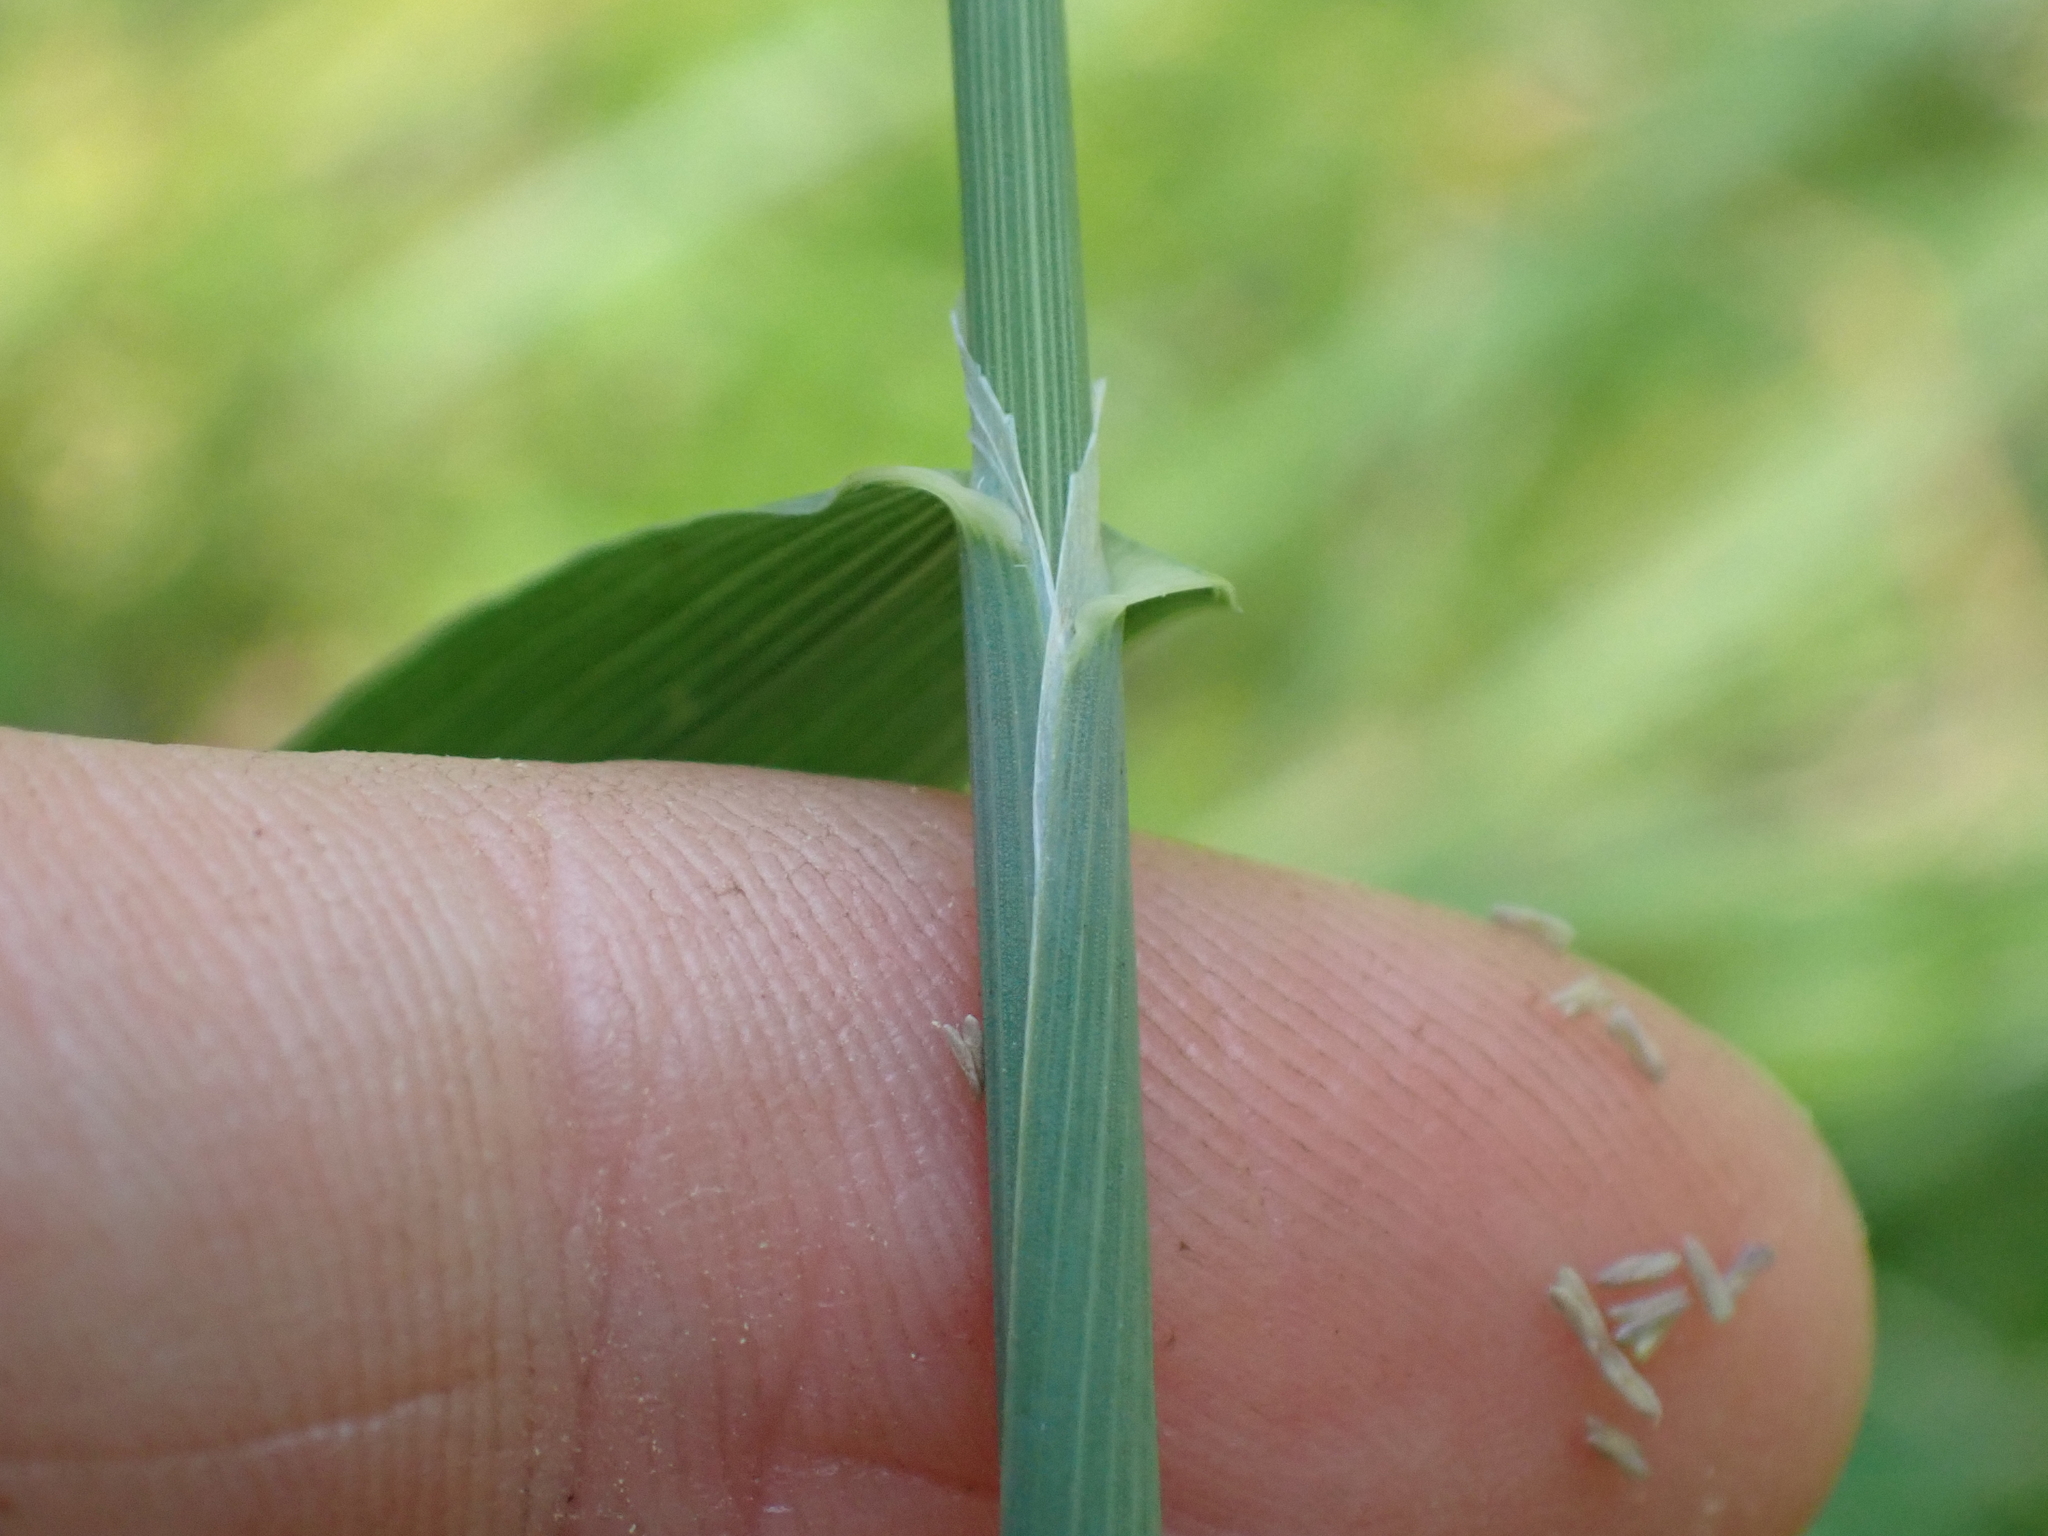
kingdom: Plantae
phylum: Tracheophyta
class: Liliopsida
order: Poales
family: Poaceae
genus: Phleum
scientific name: Phleum pratense
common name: Timothy grass
